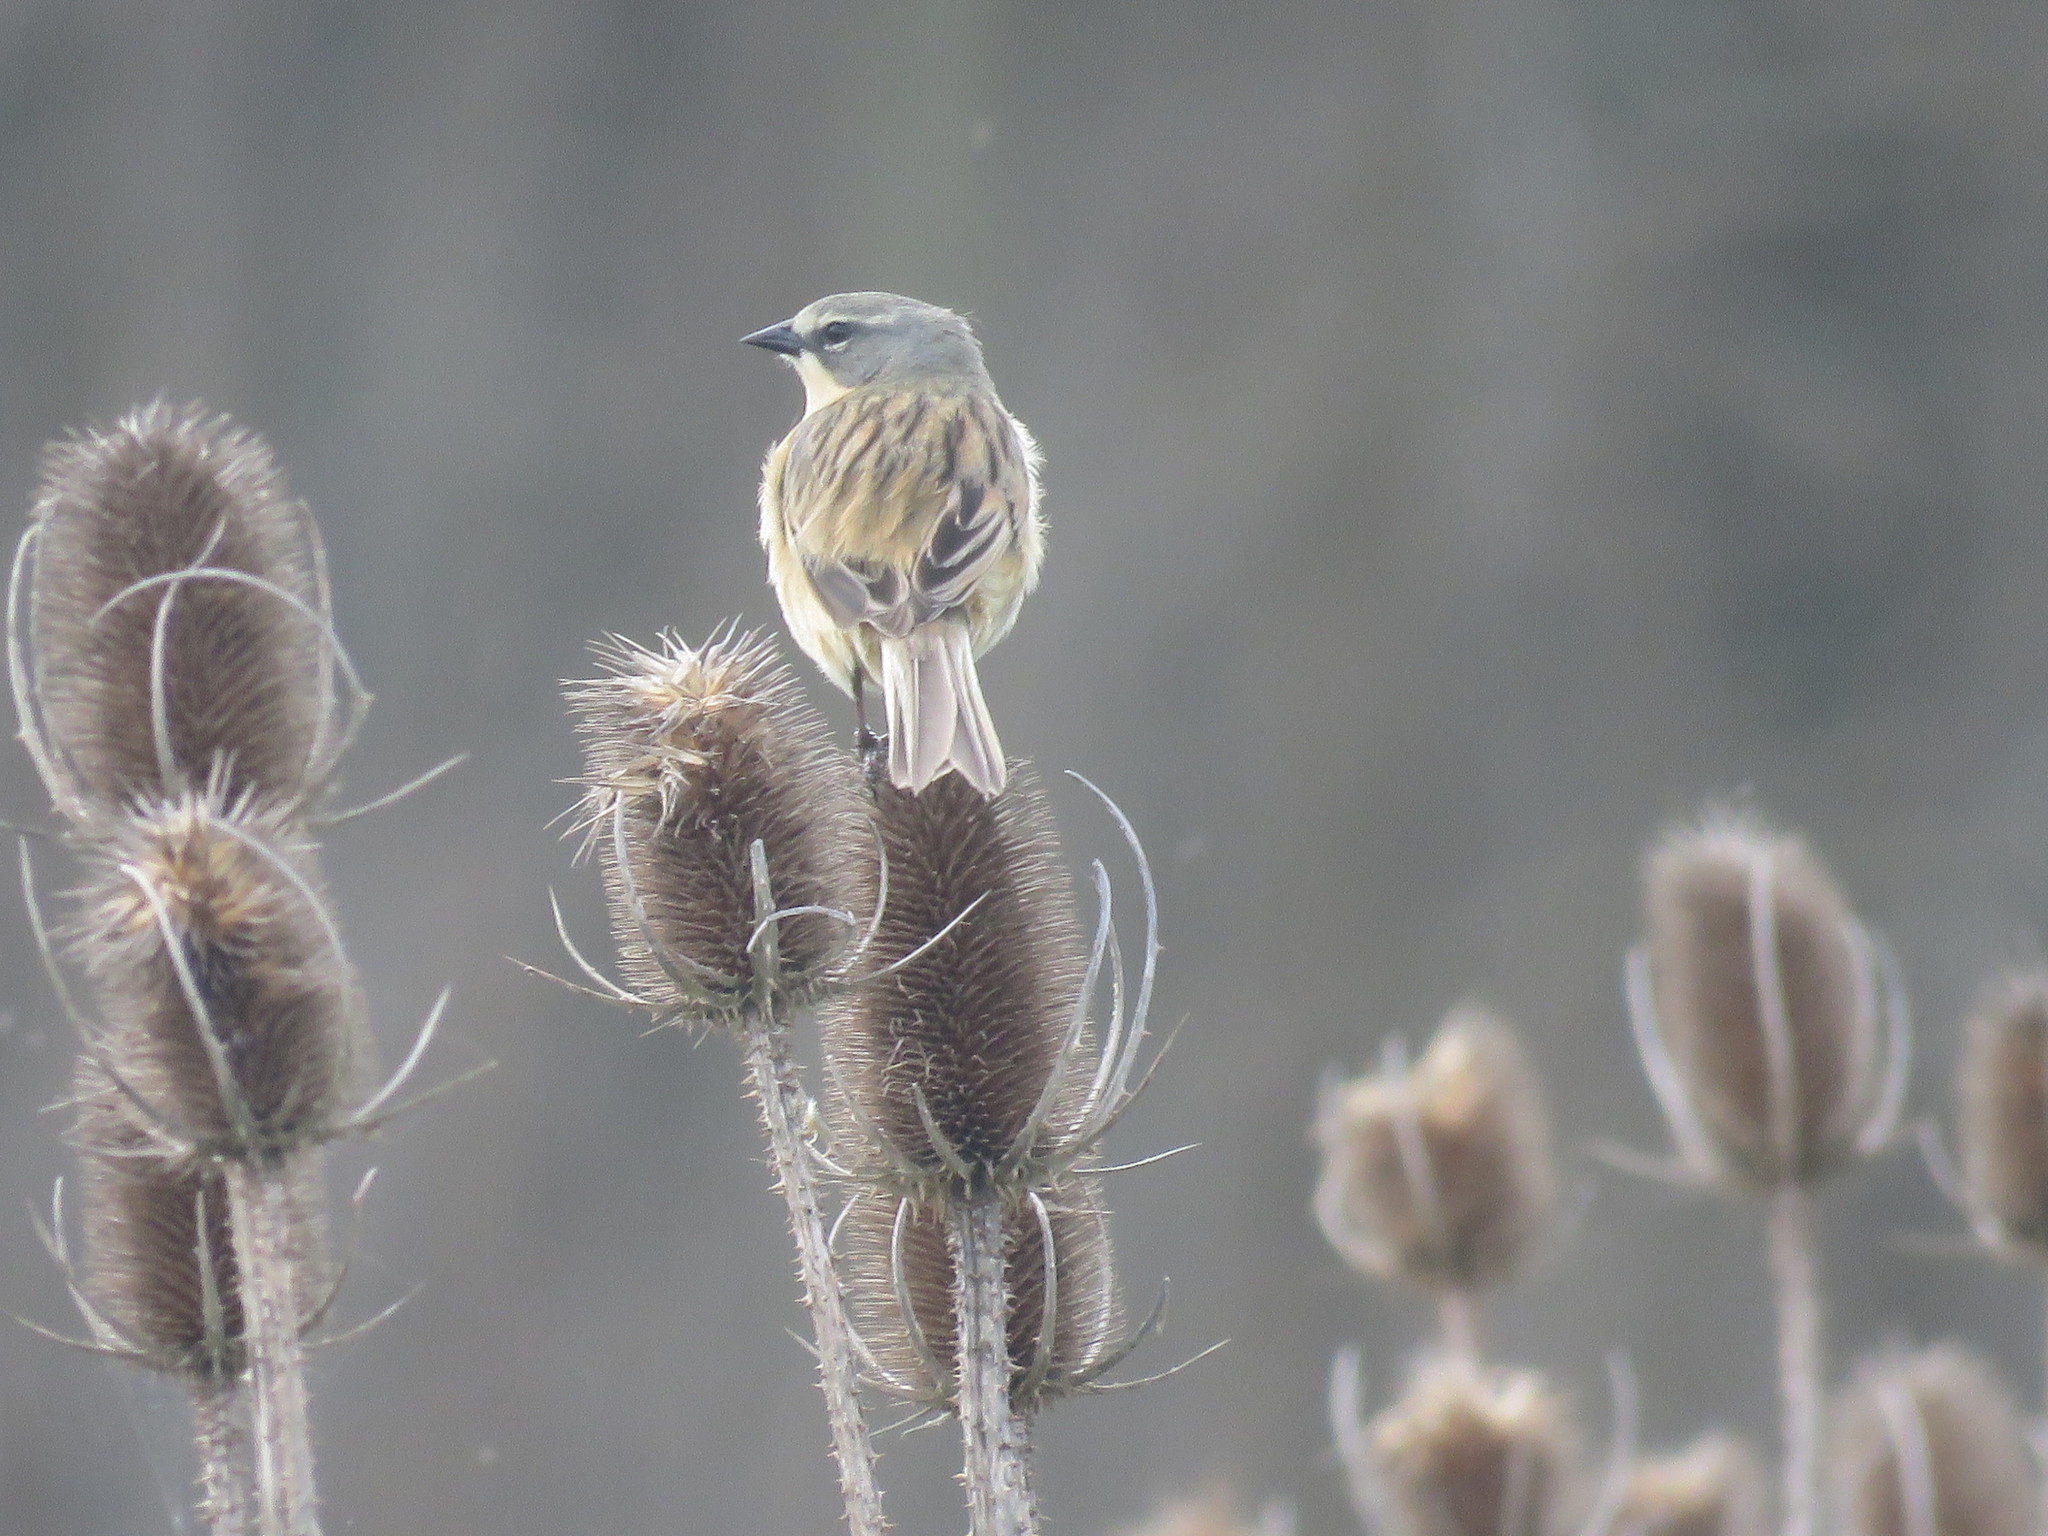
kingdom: Animalia
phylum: Chordata
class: Aves
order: Passeriformes
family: Thraupidae
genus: Donacospiza
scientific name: Donacospiza albifrons
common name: Long-tailed reed finch
